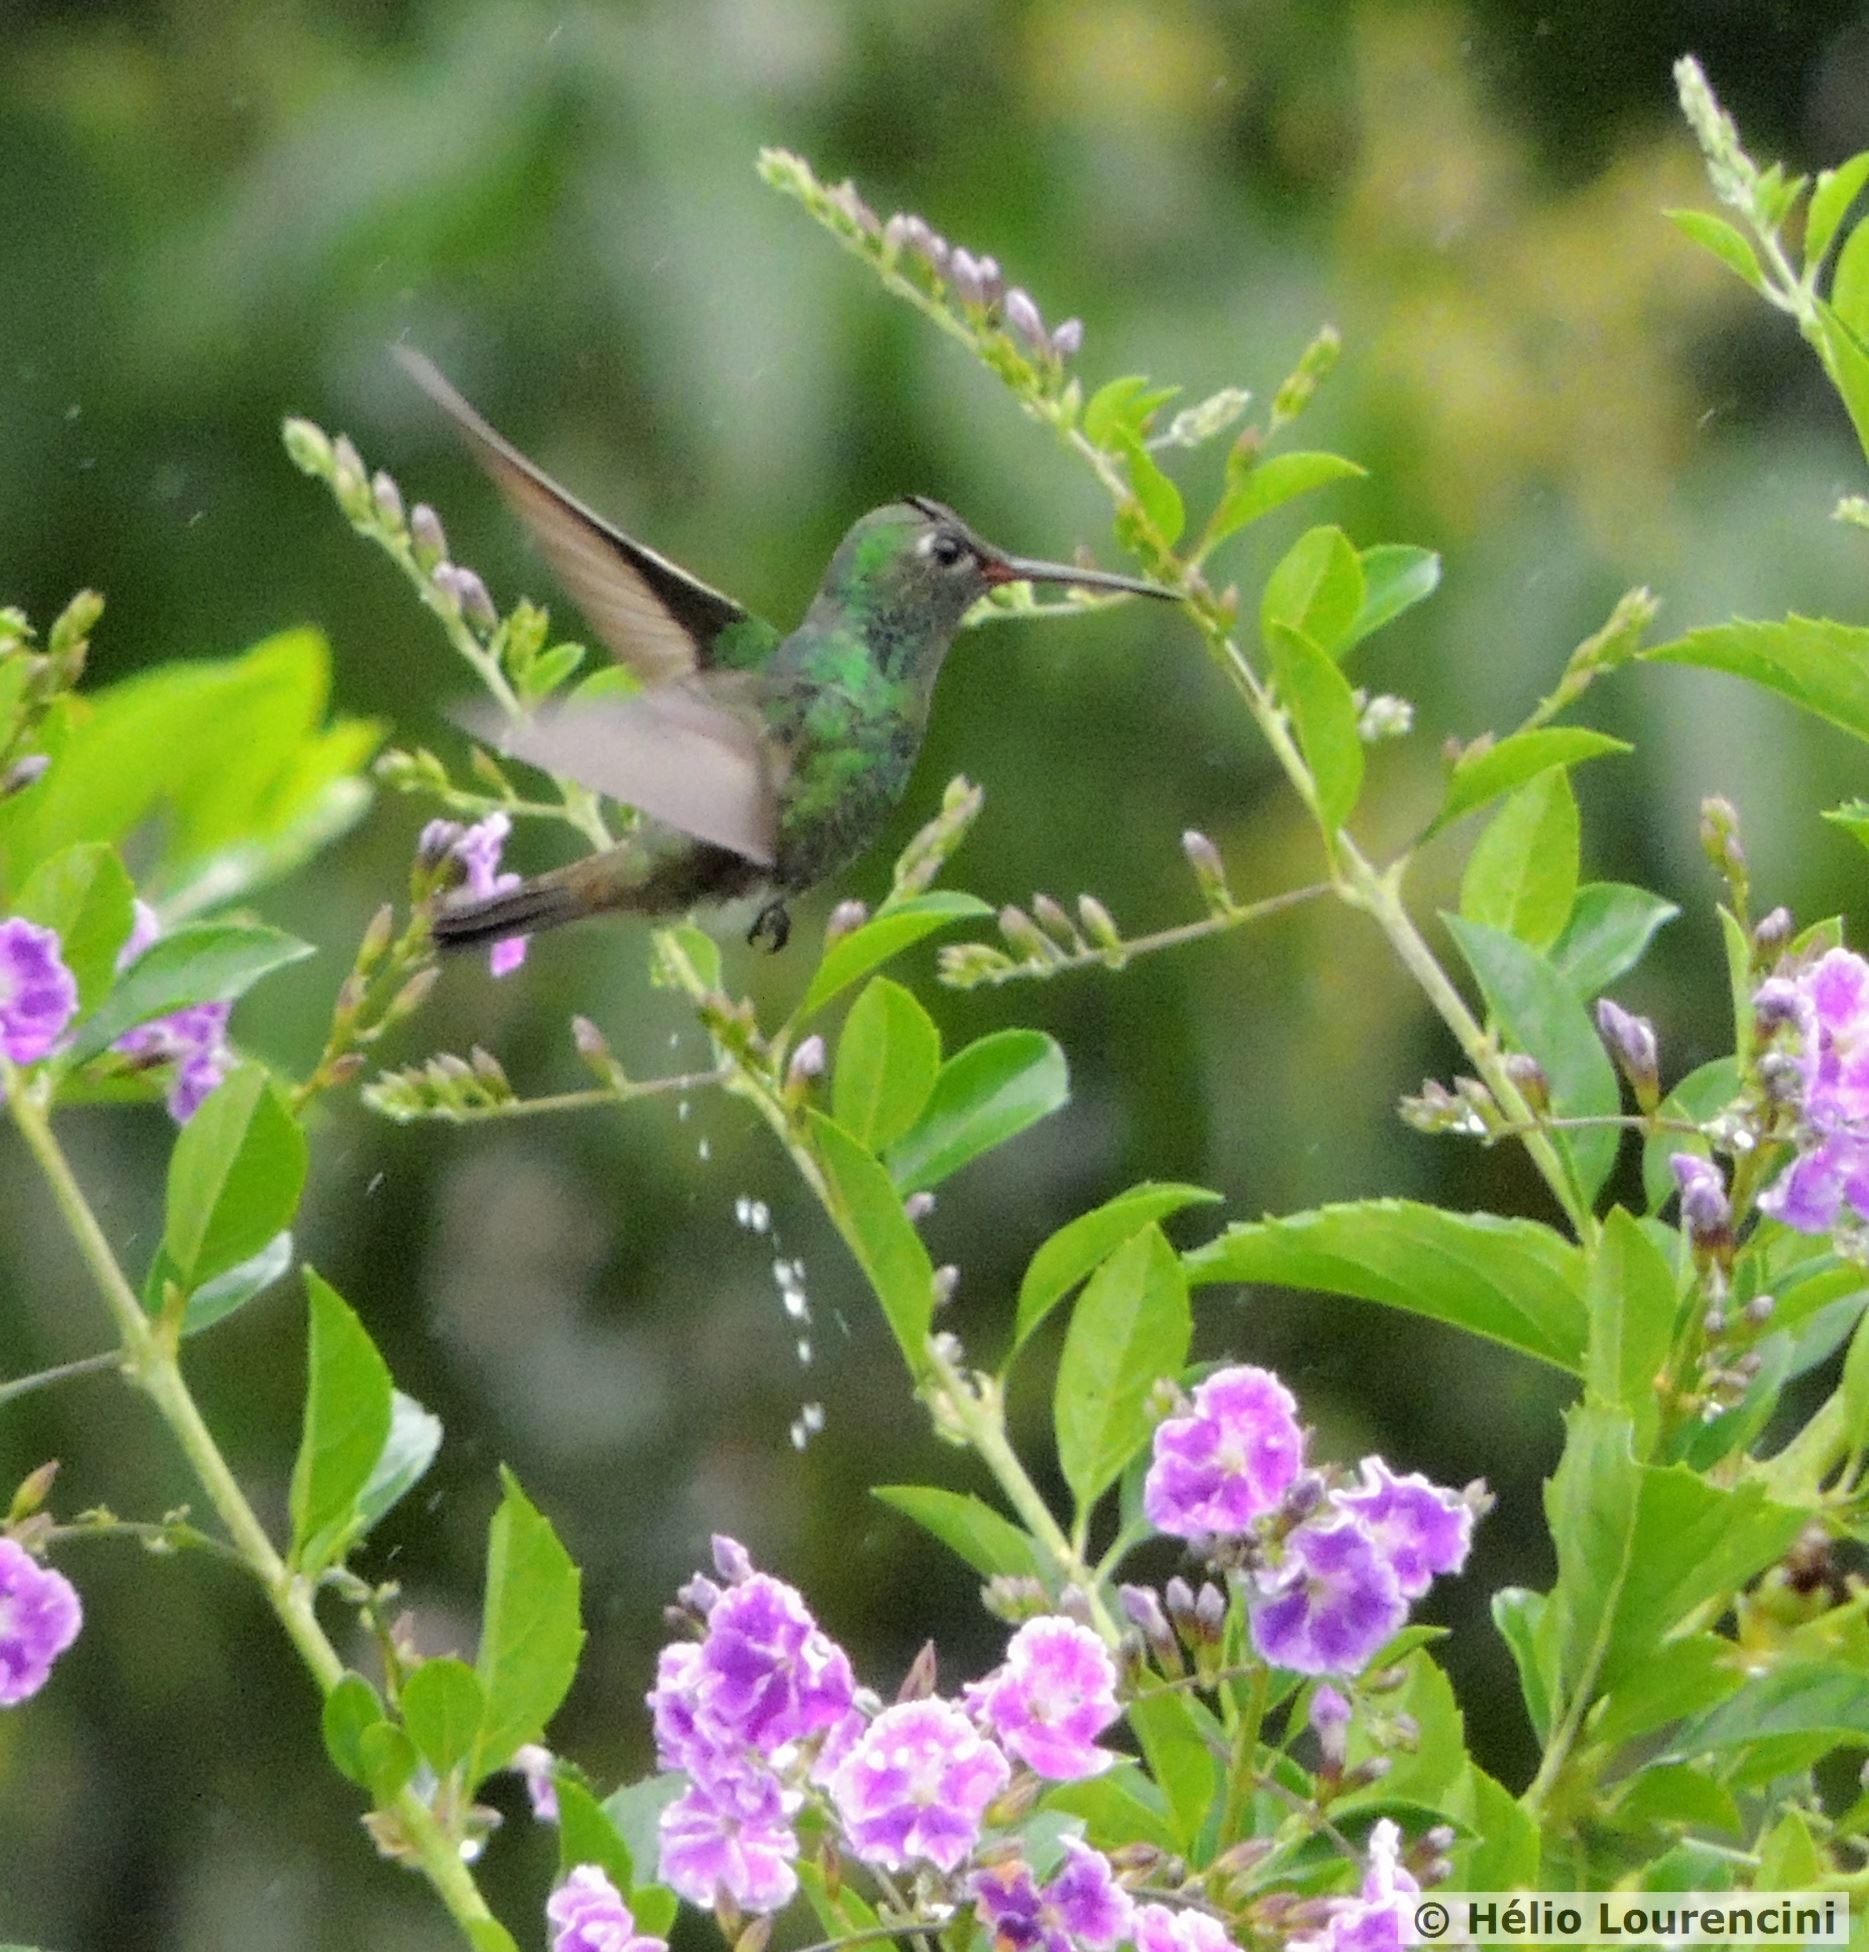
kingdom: Animalia
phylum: Chordata
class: Aves
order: Apodiformes
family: Trochilidae
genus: Chionomesa
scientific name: Chionomesa fimbriata
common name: Glittering-throated emerald
